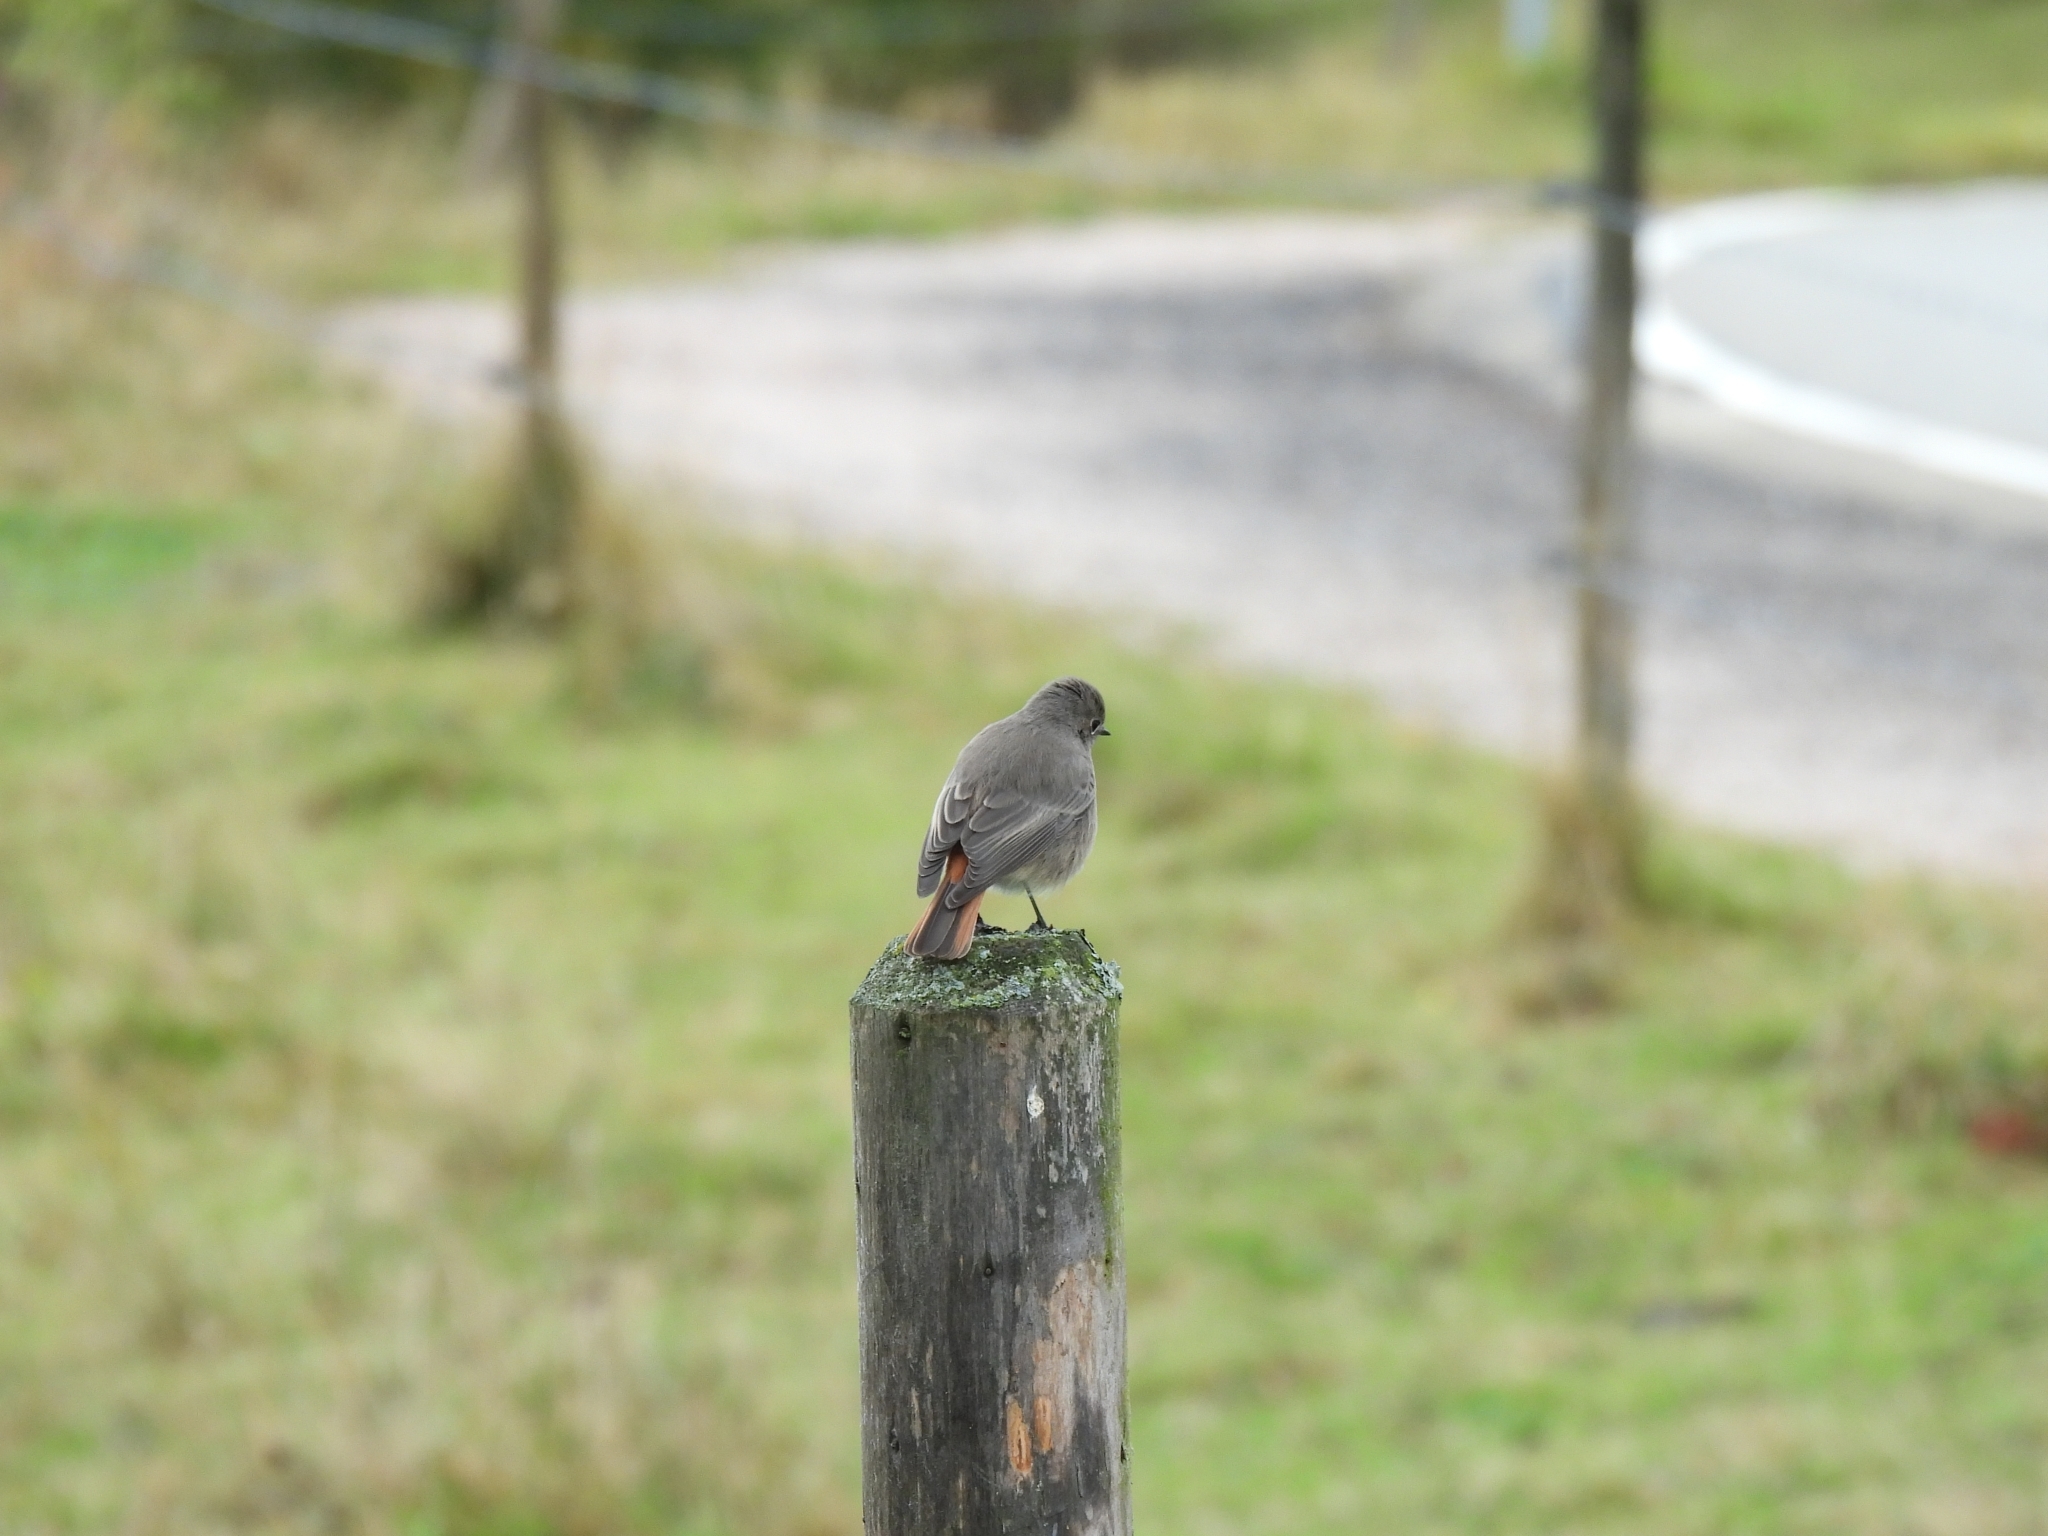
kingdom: Animalia
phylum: Chordata
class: Aves
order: Passeriformes
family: Muscicapidae
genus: Phoenicurus
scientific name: Phoenicurus ochruros
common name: Black redstart
